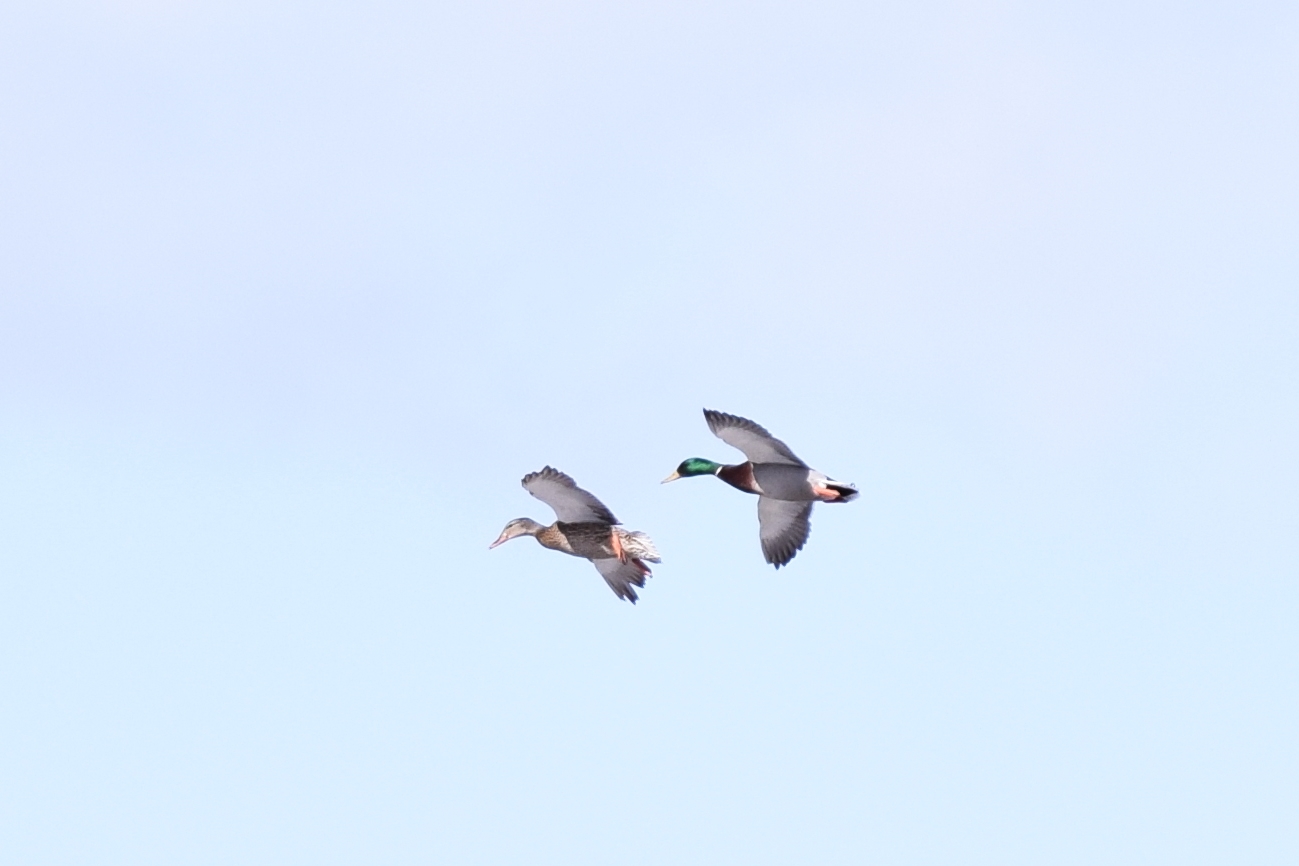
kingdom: Animalia
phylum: Chordata
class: Aves
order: Anseriformes
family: Anatidae
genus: Anas
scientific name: Anas platyrhynchos
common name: Mallard
